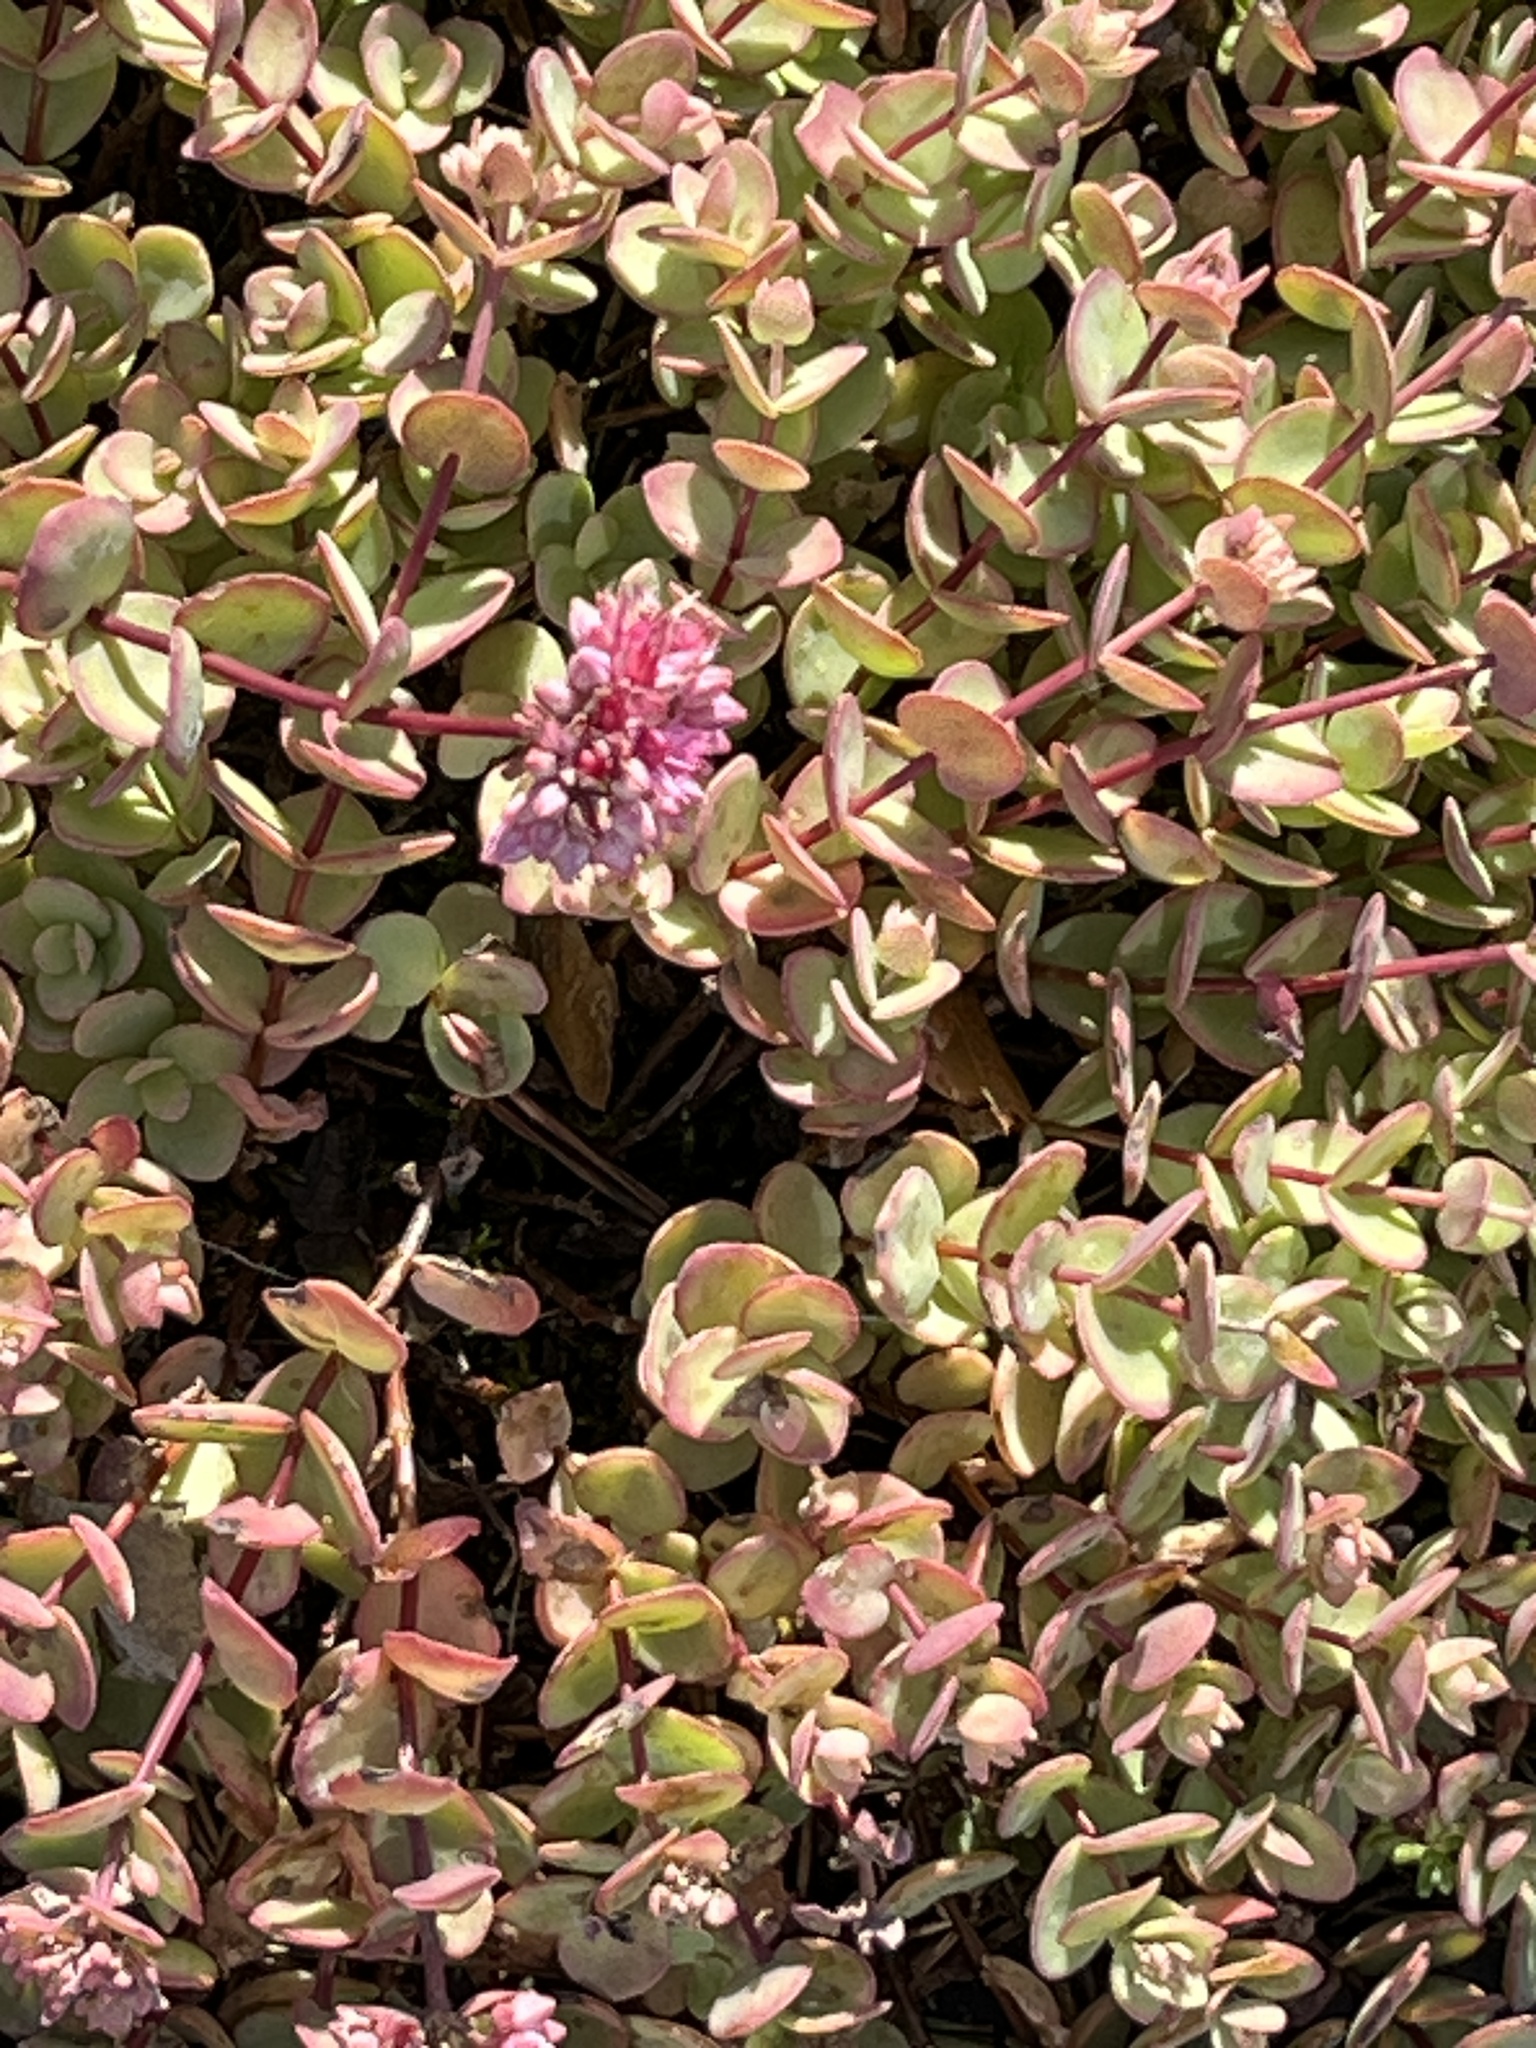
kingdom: Plantae
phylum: Tracheophyta
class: Magnoliopsida
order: Saxifragales
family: Crassulaceae
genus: Hylotelephium
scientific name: Hylotelephium ewersii
